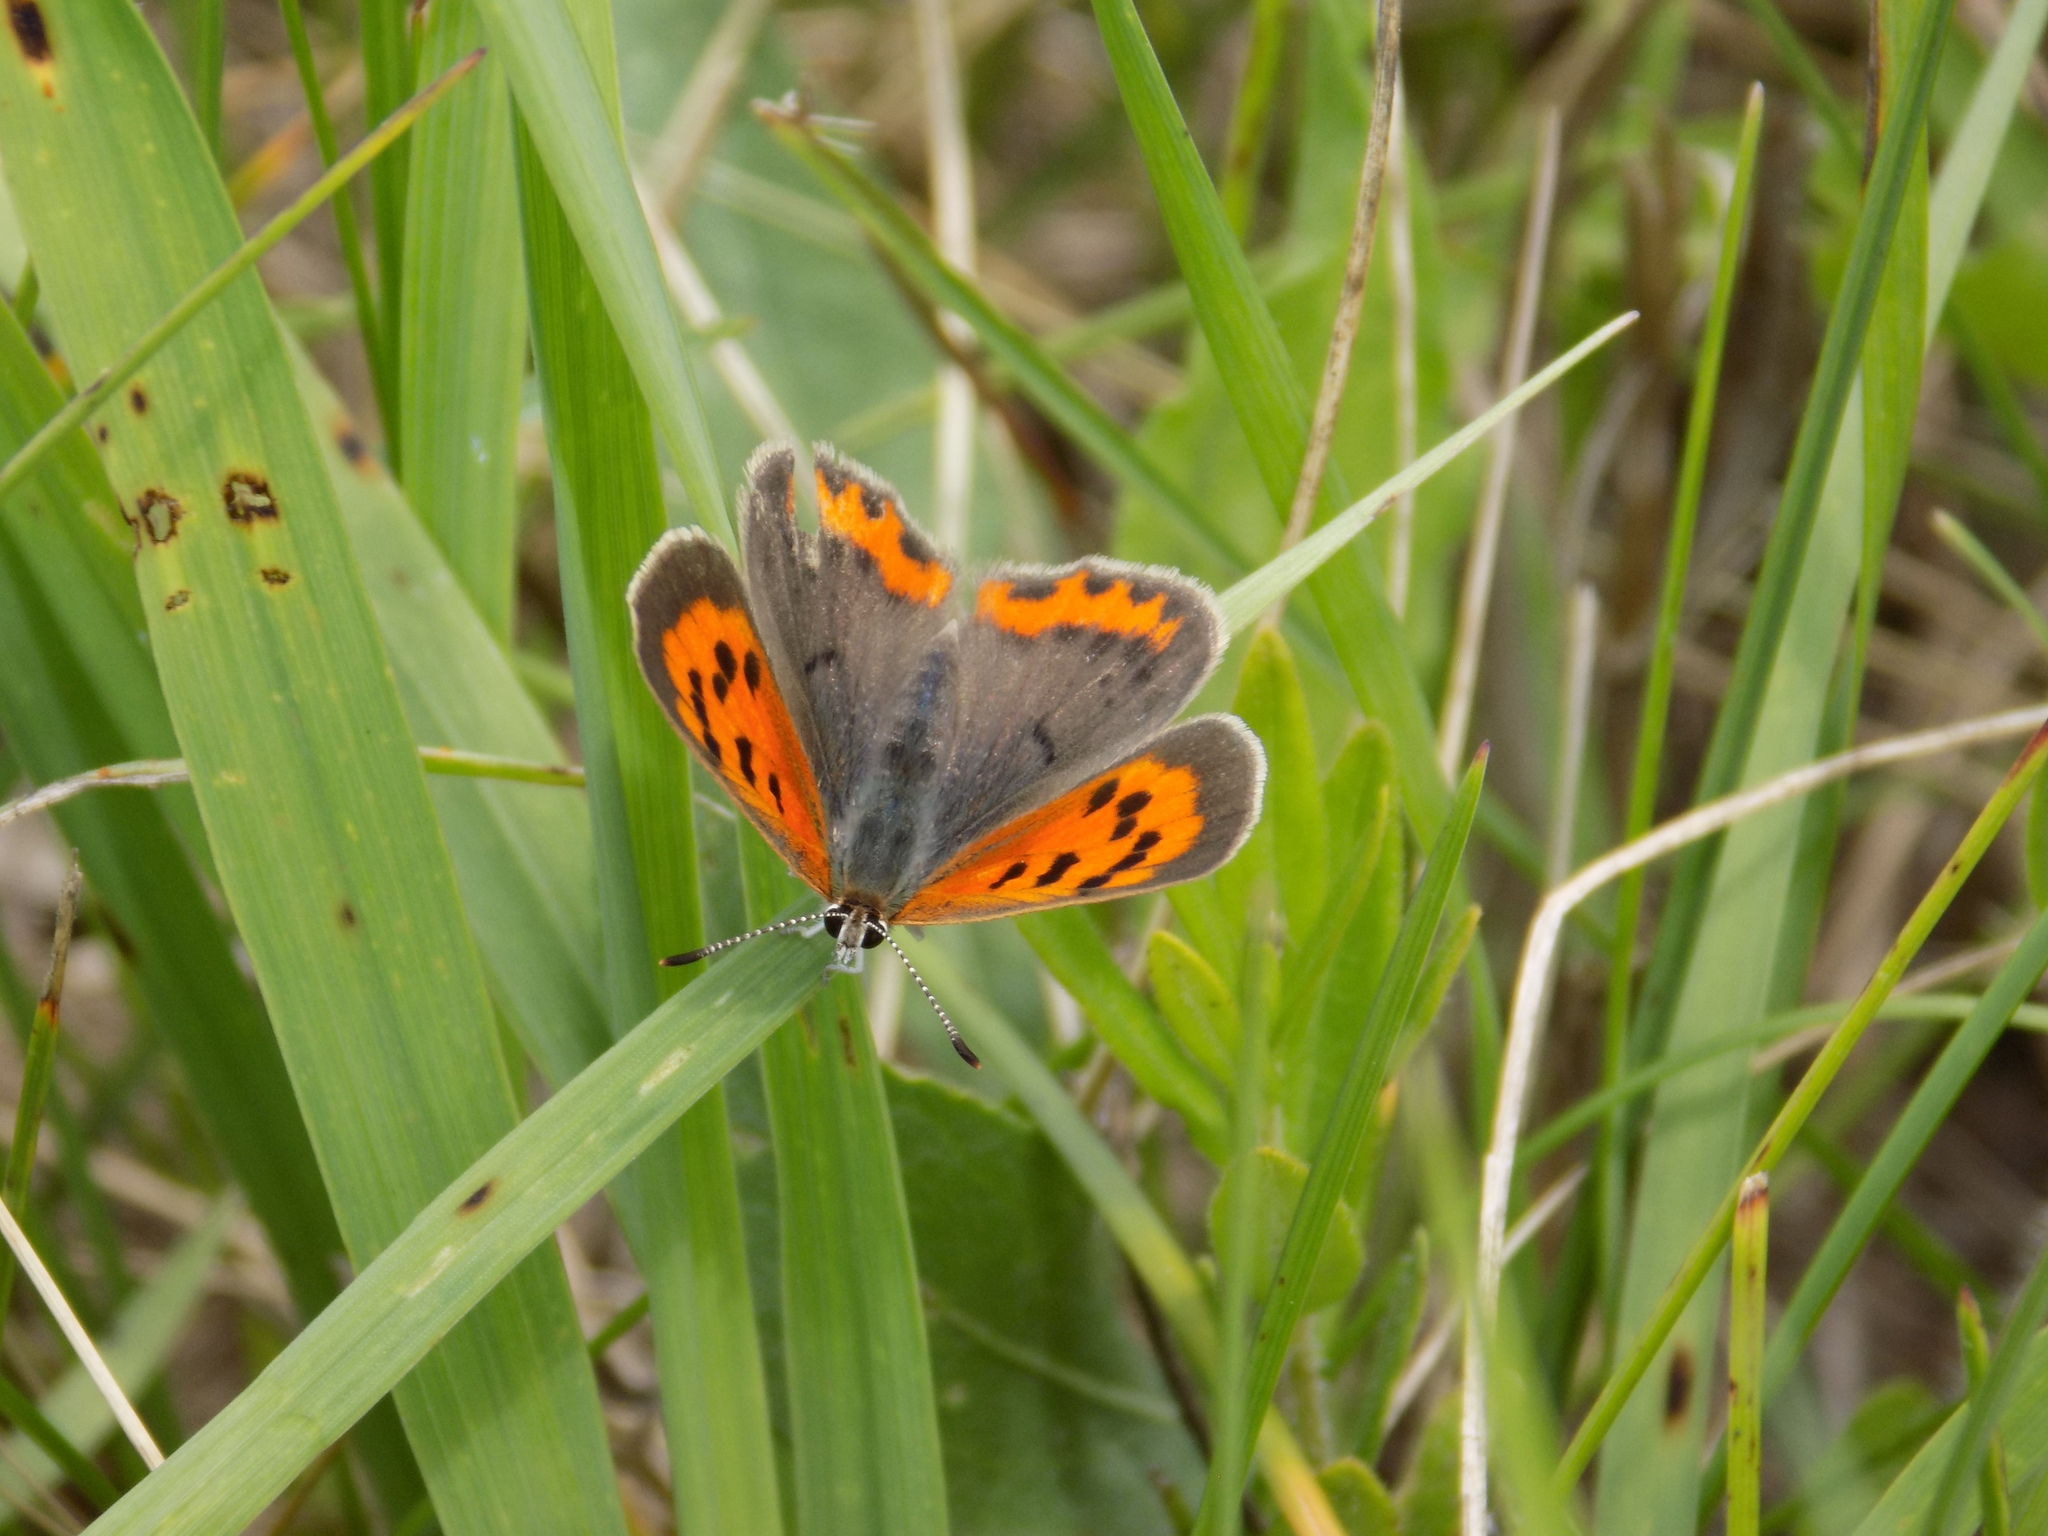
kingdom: Animalia
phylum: Arthropoda
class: Insecta
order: Lepidoptera
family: Lycaenidae
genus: Lycaena
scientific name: Lycaena hypophlaeas
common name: American copper
